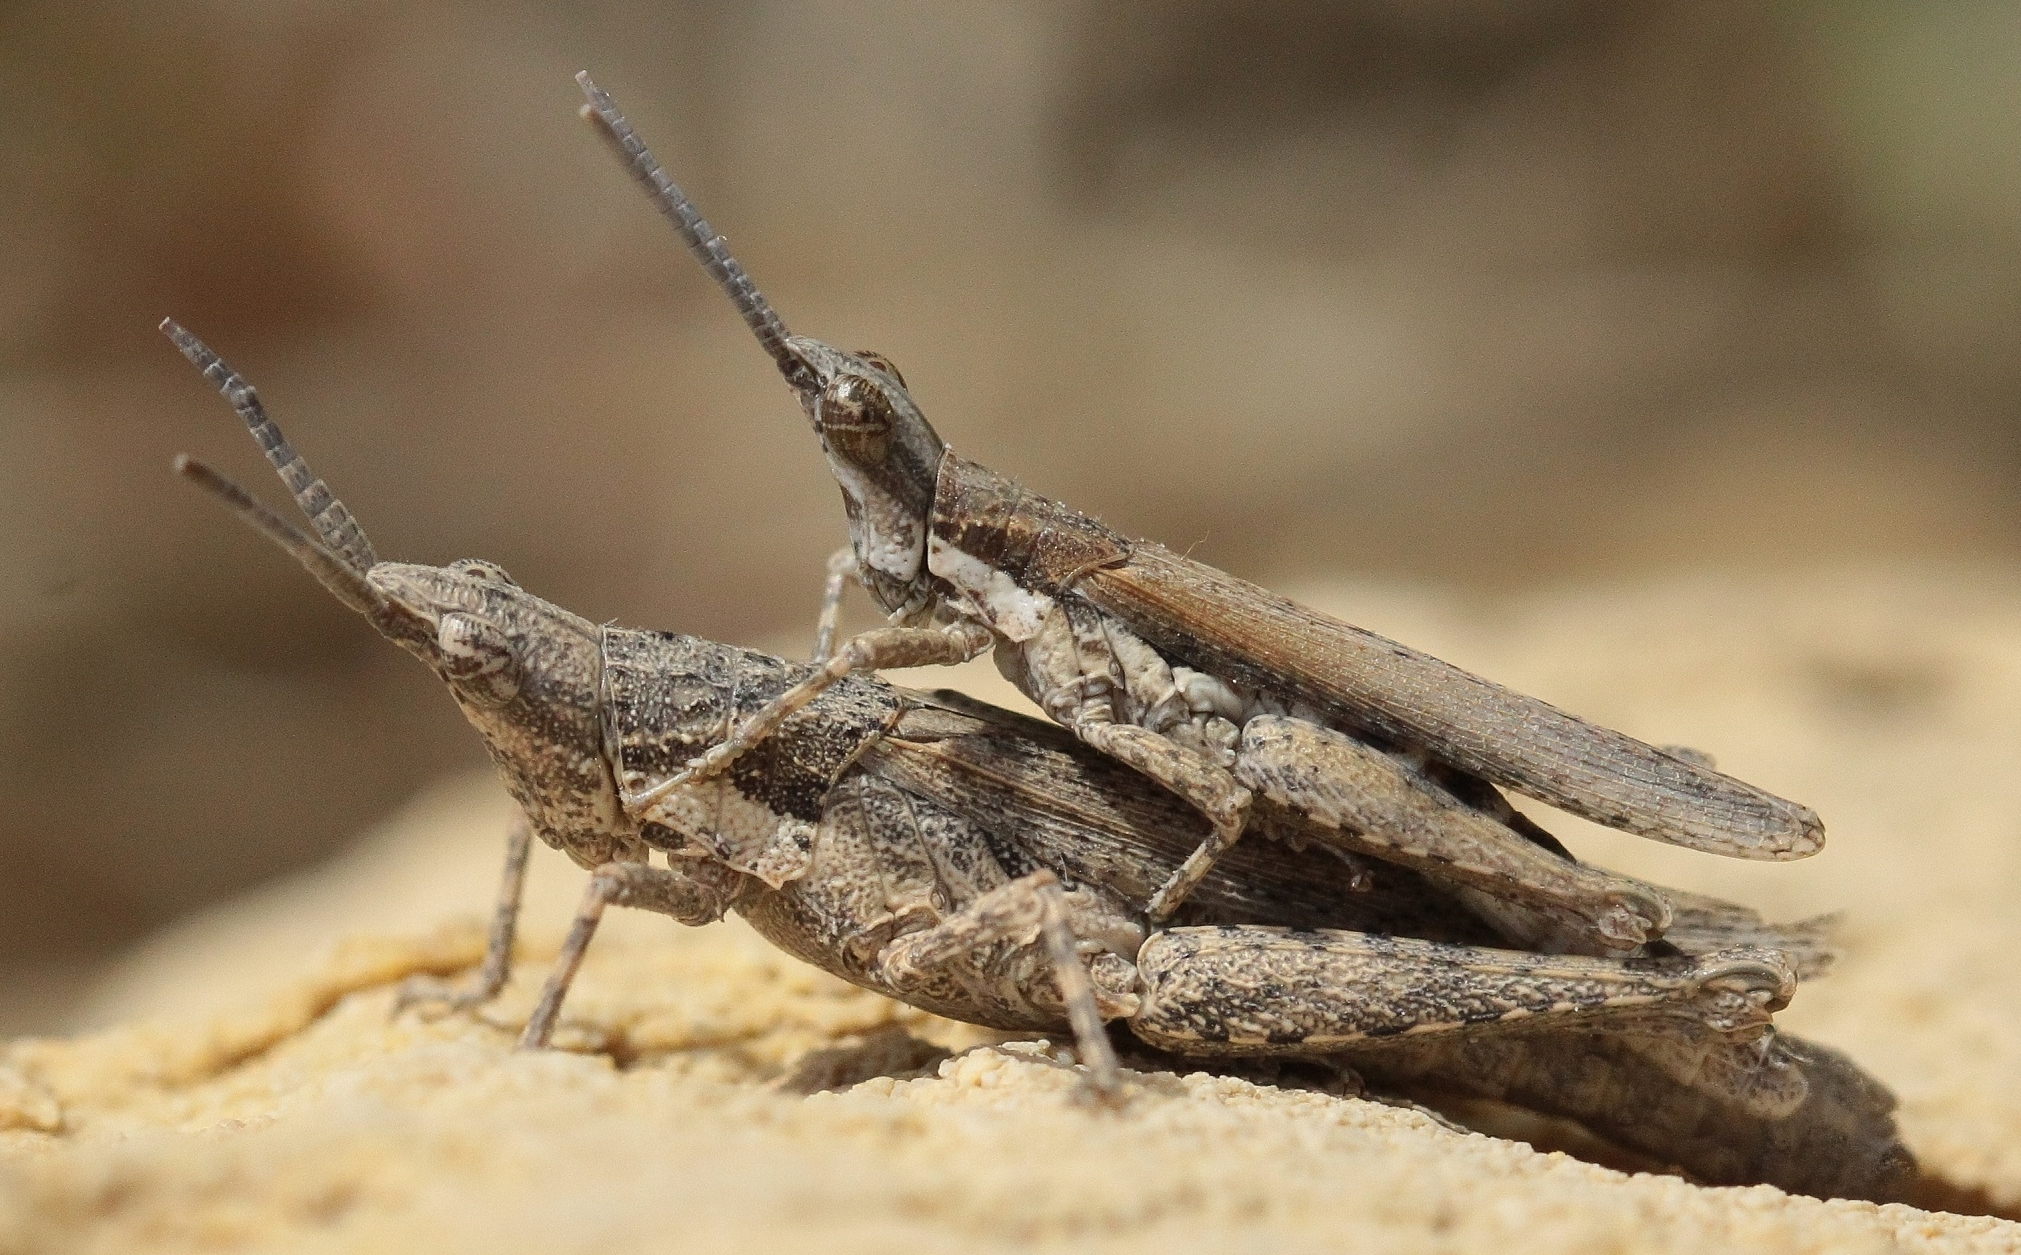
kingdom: Animalia
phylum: Arthropoda
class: Insecta
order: Orthoptera
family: Pyrgomorphidae
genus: Pyrgomorpha
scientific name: Pyrgomorpha bispinosa
